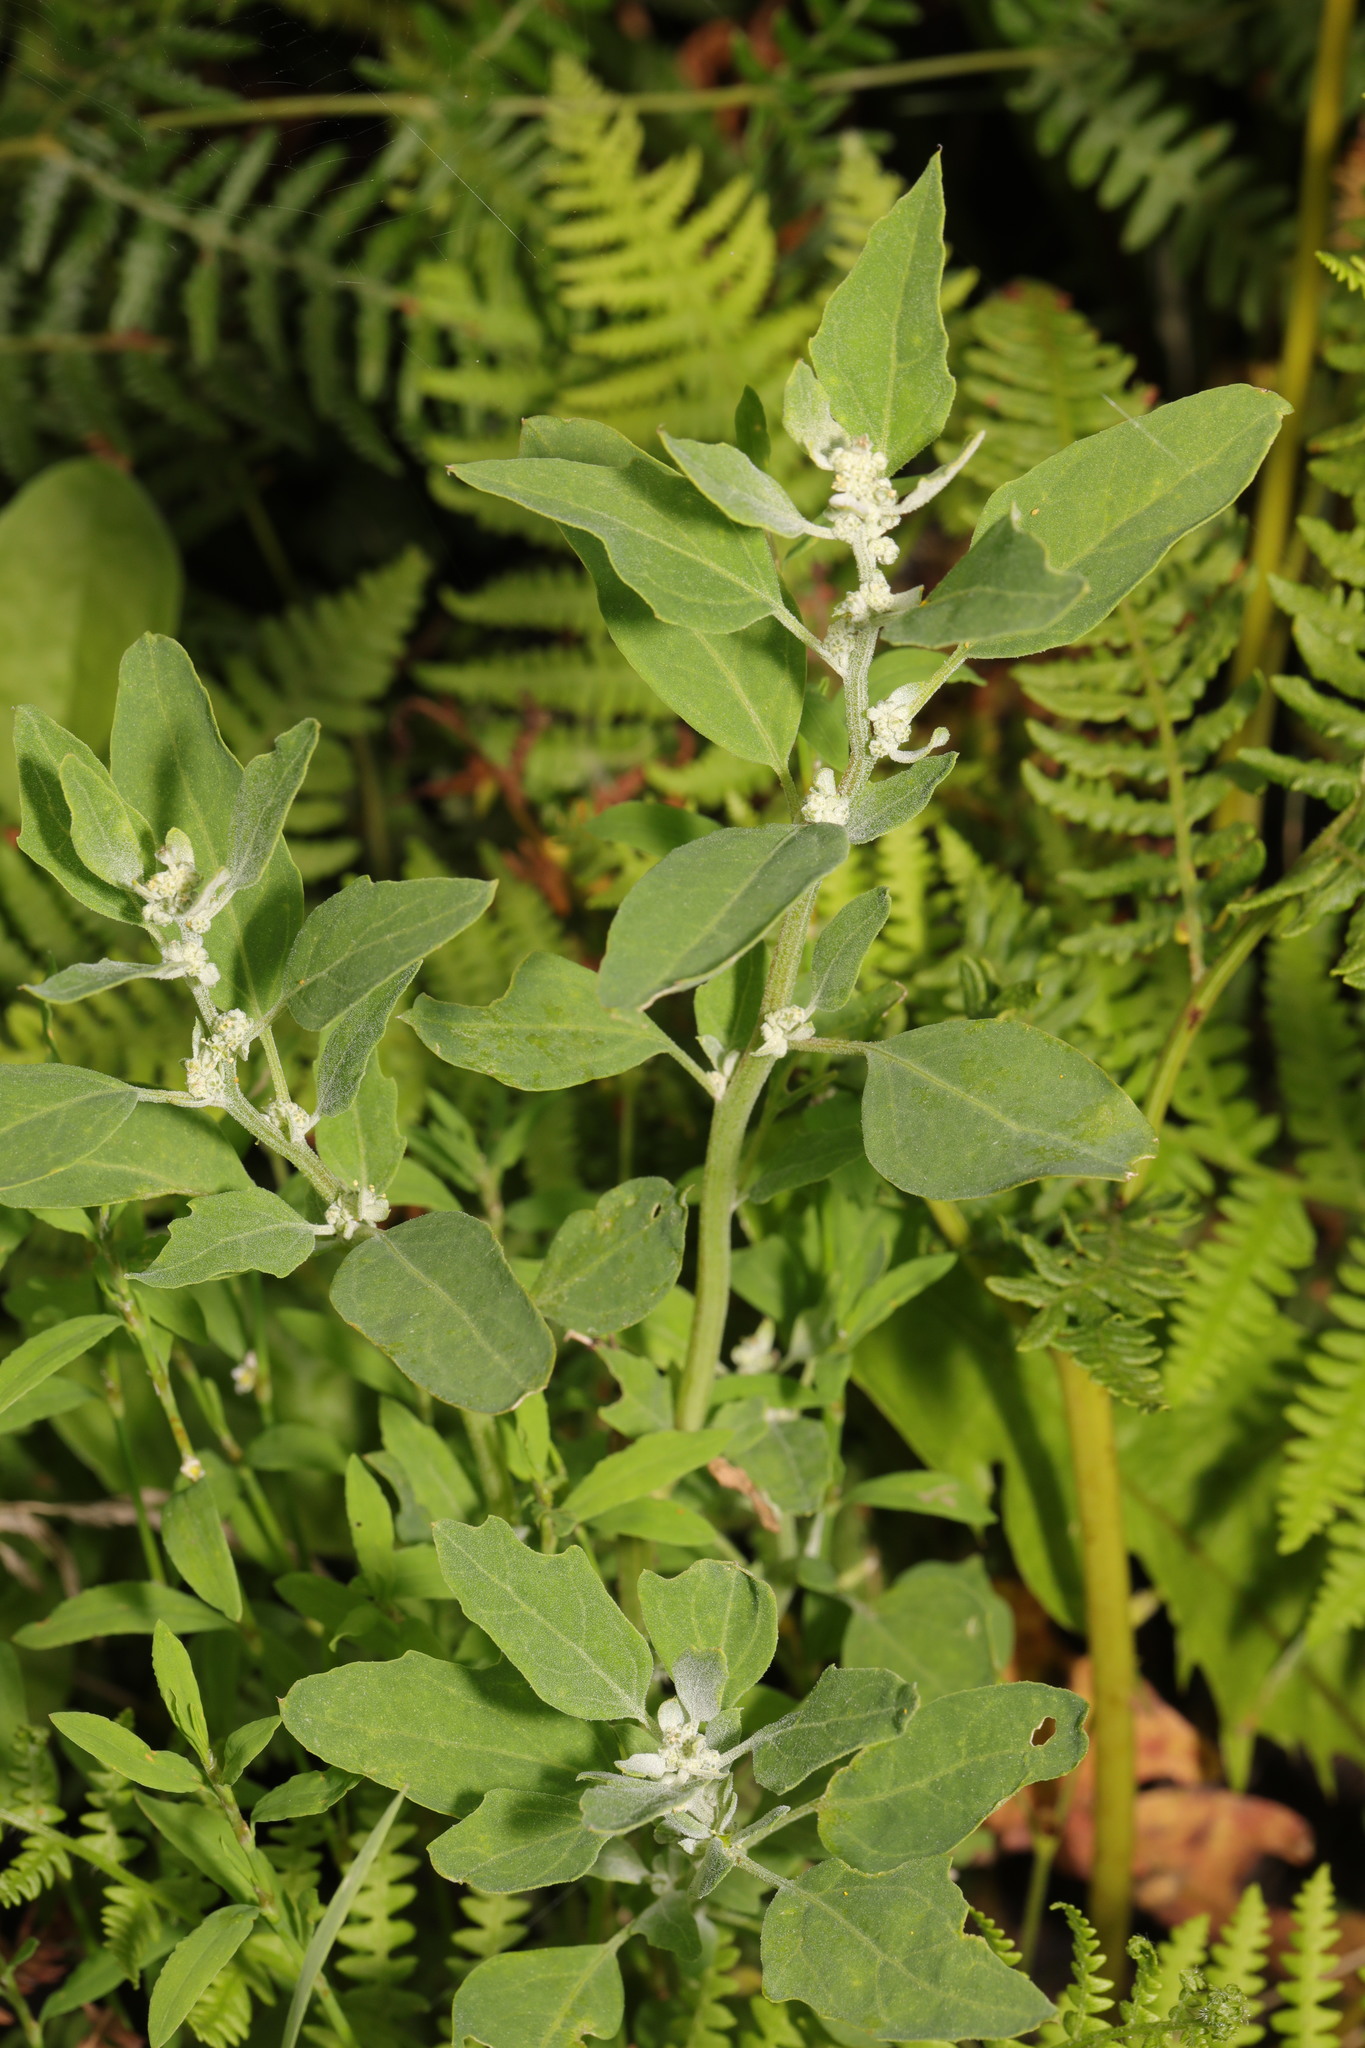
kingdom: Plantae
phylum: Tracheophyta
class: Magnoliopsida
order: Caryophyllales
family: Amaranthaceae
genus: Chenopodium
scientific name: Chenopodium album
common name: Fat-hen
